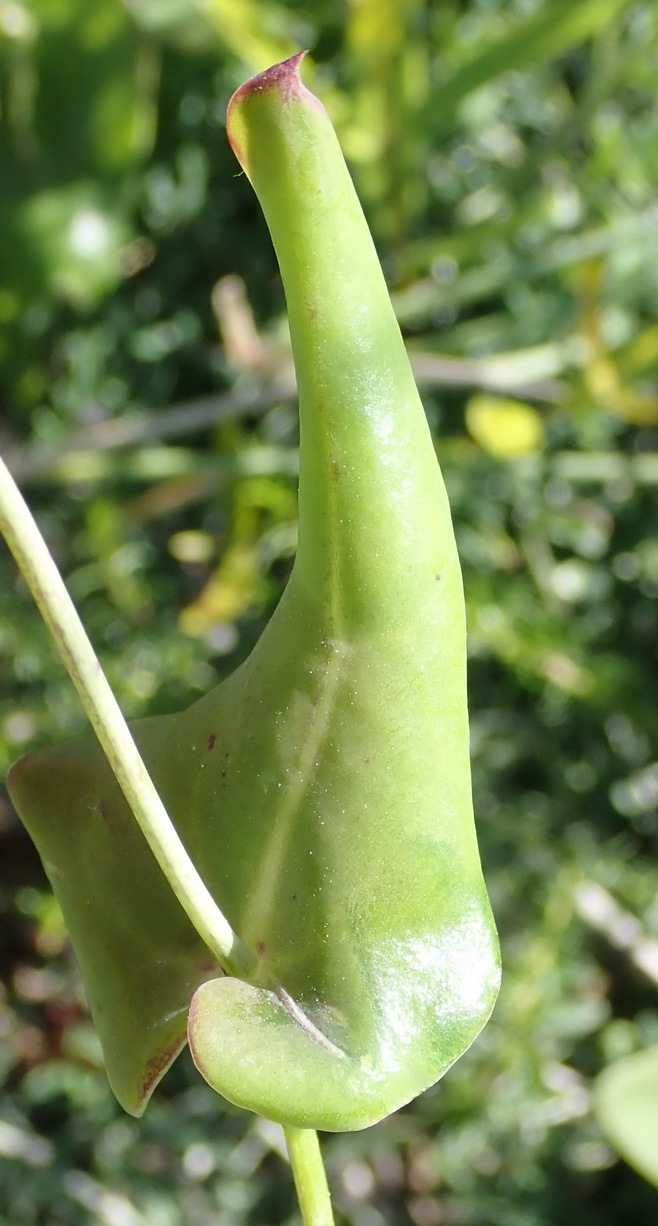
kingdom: Plantae
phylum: Tracheophyta
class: Magnoliopsida
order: Asterales
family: Asteraceae
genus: Othonna
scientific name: Othonna undulosa
